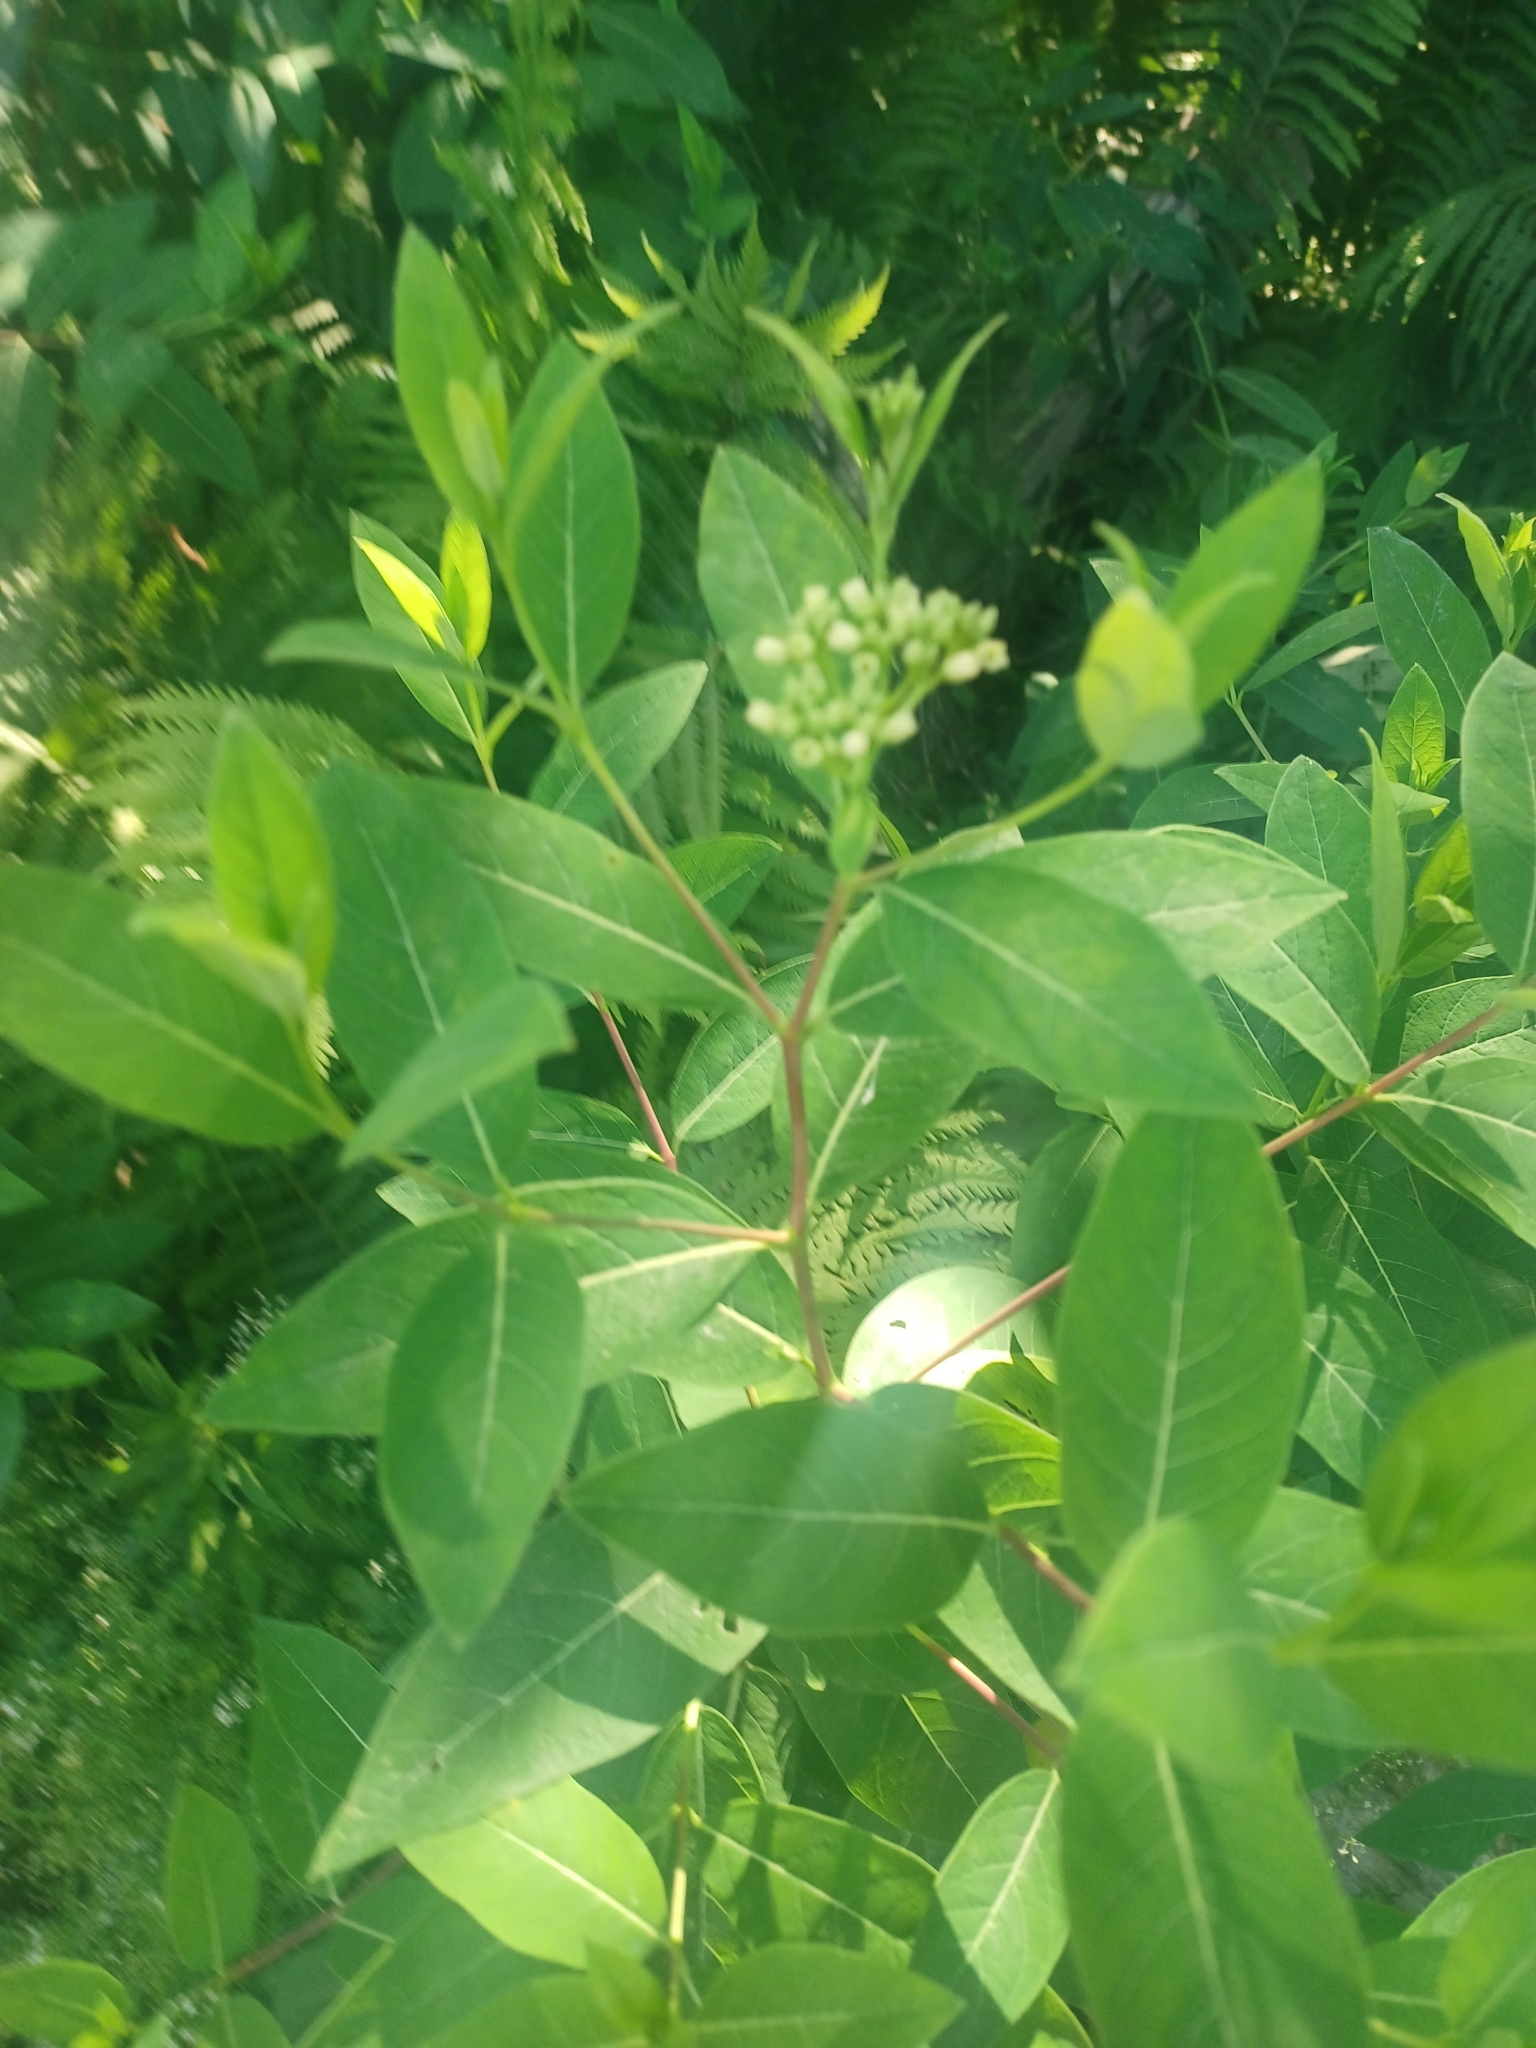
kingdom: Plantae
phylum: Tracheophyta
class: Magnoliopsida
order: Gentianales
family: Apocynaceae
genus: Apocynum
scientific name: Apocynum cannabinum
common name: Hemp dogbane
